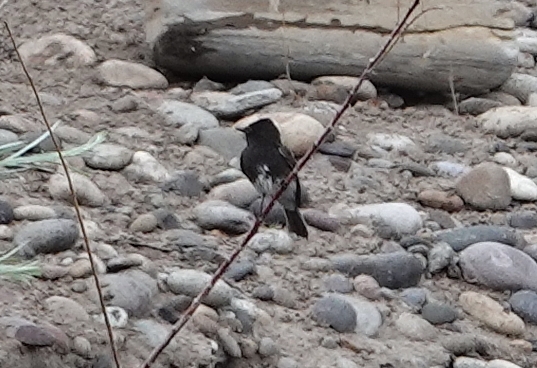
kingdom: Animalia
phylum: Chordata
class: Aves
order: Passeriformes
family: Tyrannidae
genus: Sayornis
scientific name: Sayornis nigricans
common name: Black phoebe
